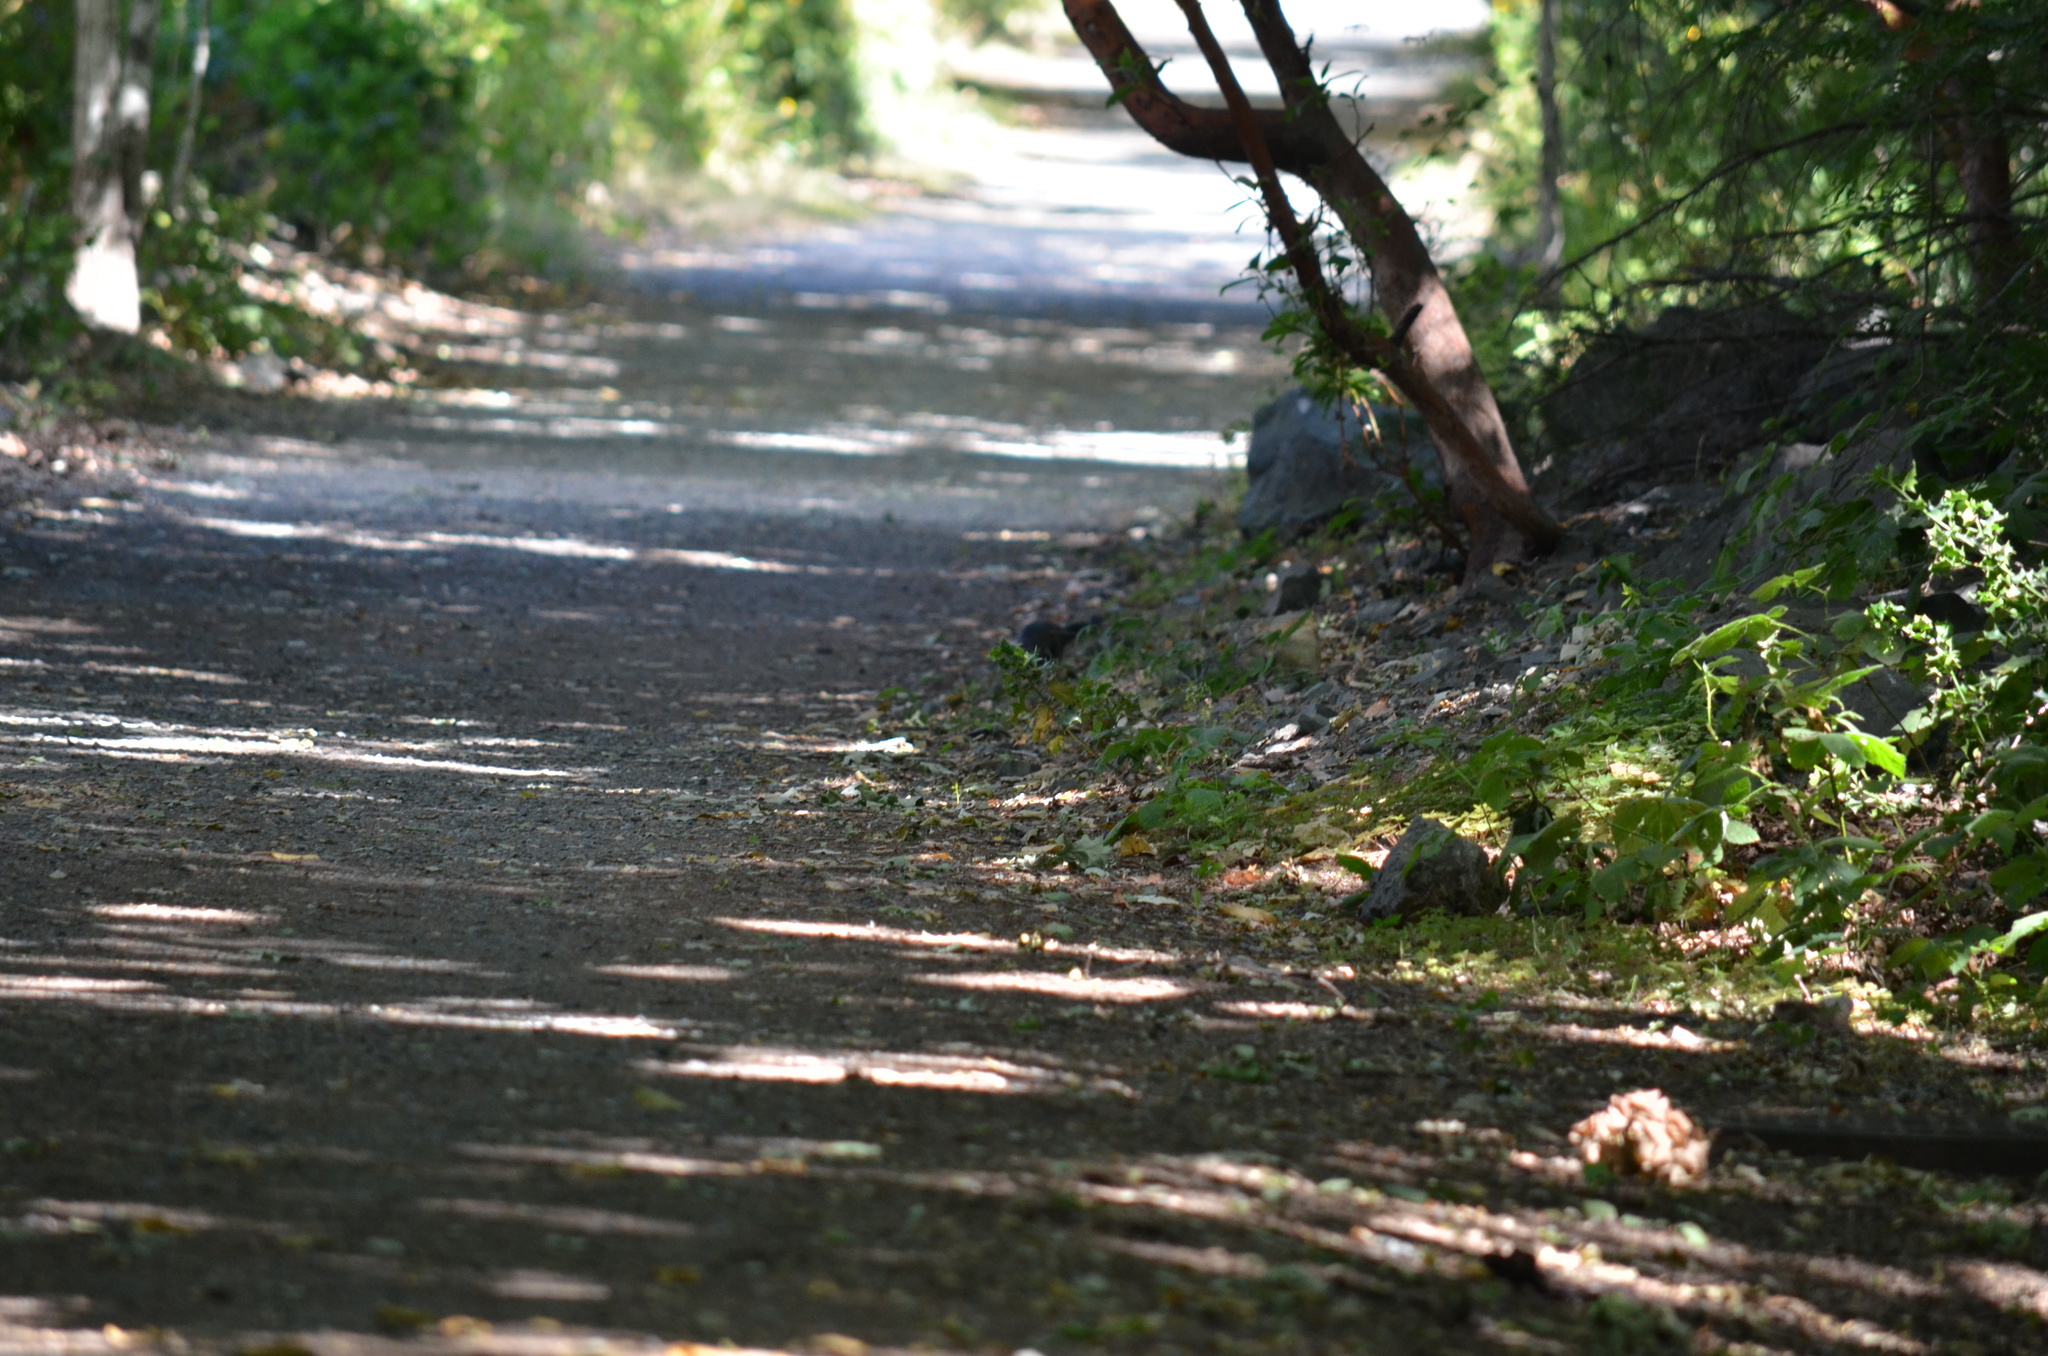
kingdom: Animalia
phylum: Chordata
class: Mammalia
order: Rodentia
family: Sciuridae
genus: Sciurus
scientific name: Sciurus carolinensis
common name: Eastern gray squirrel
